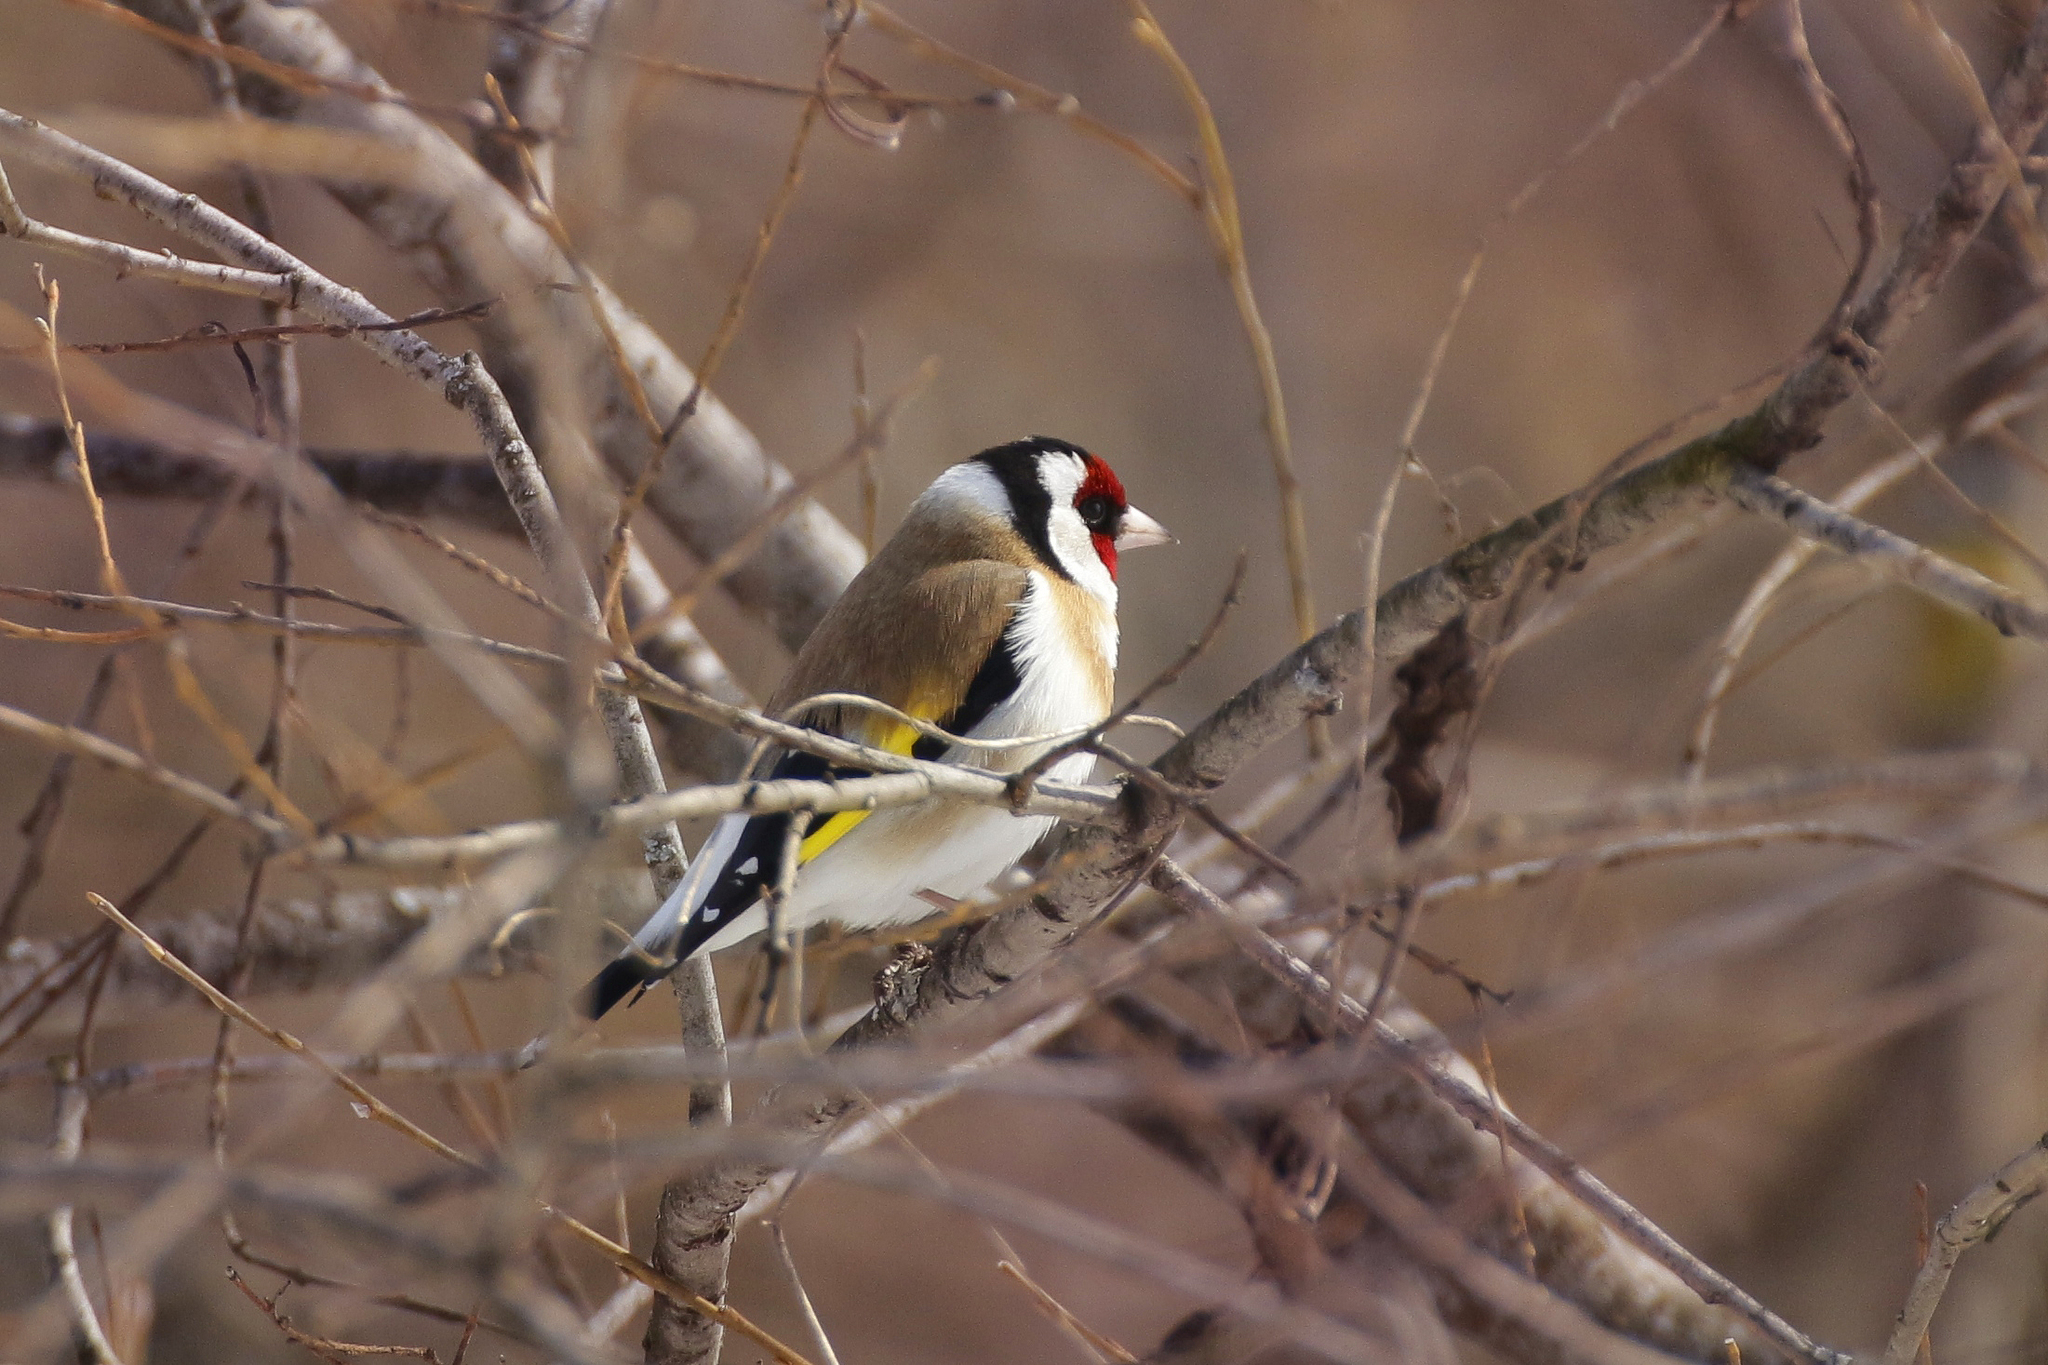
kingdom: Animalia
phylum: Chordata
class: Aves
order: Passeriformes
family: Fringillidae
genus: Carduelis
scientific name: Carduelis carduelis
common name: European goldfinch
